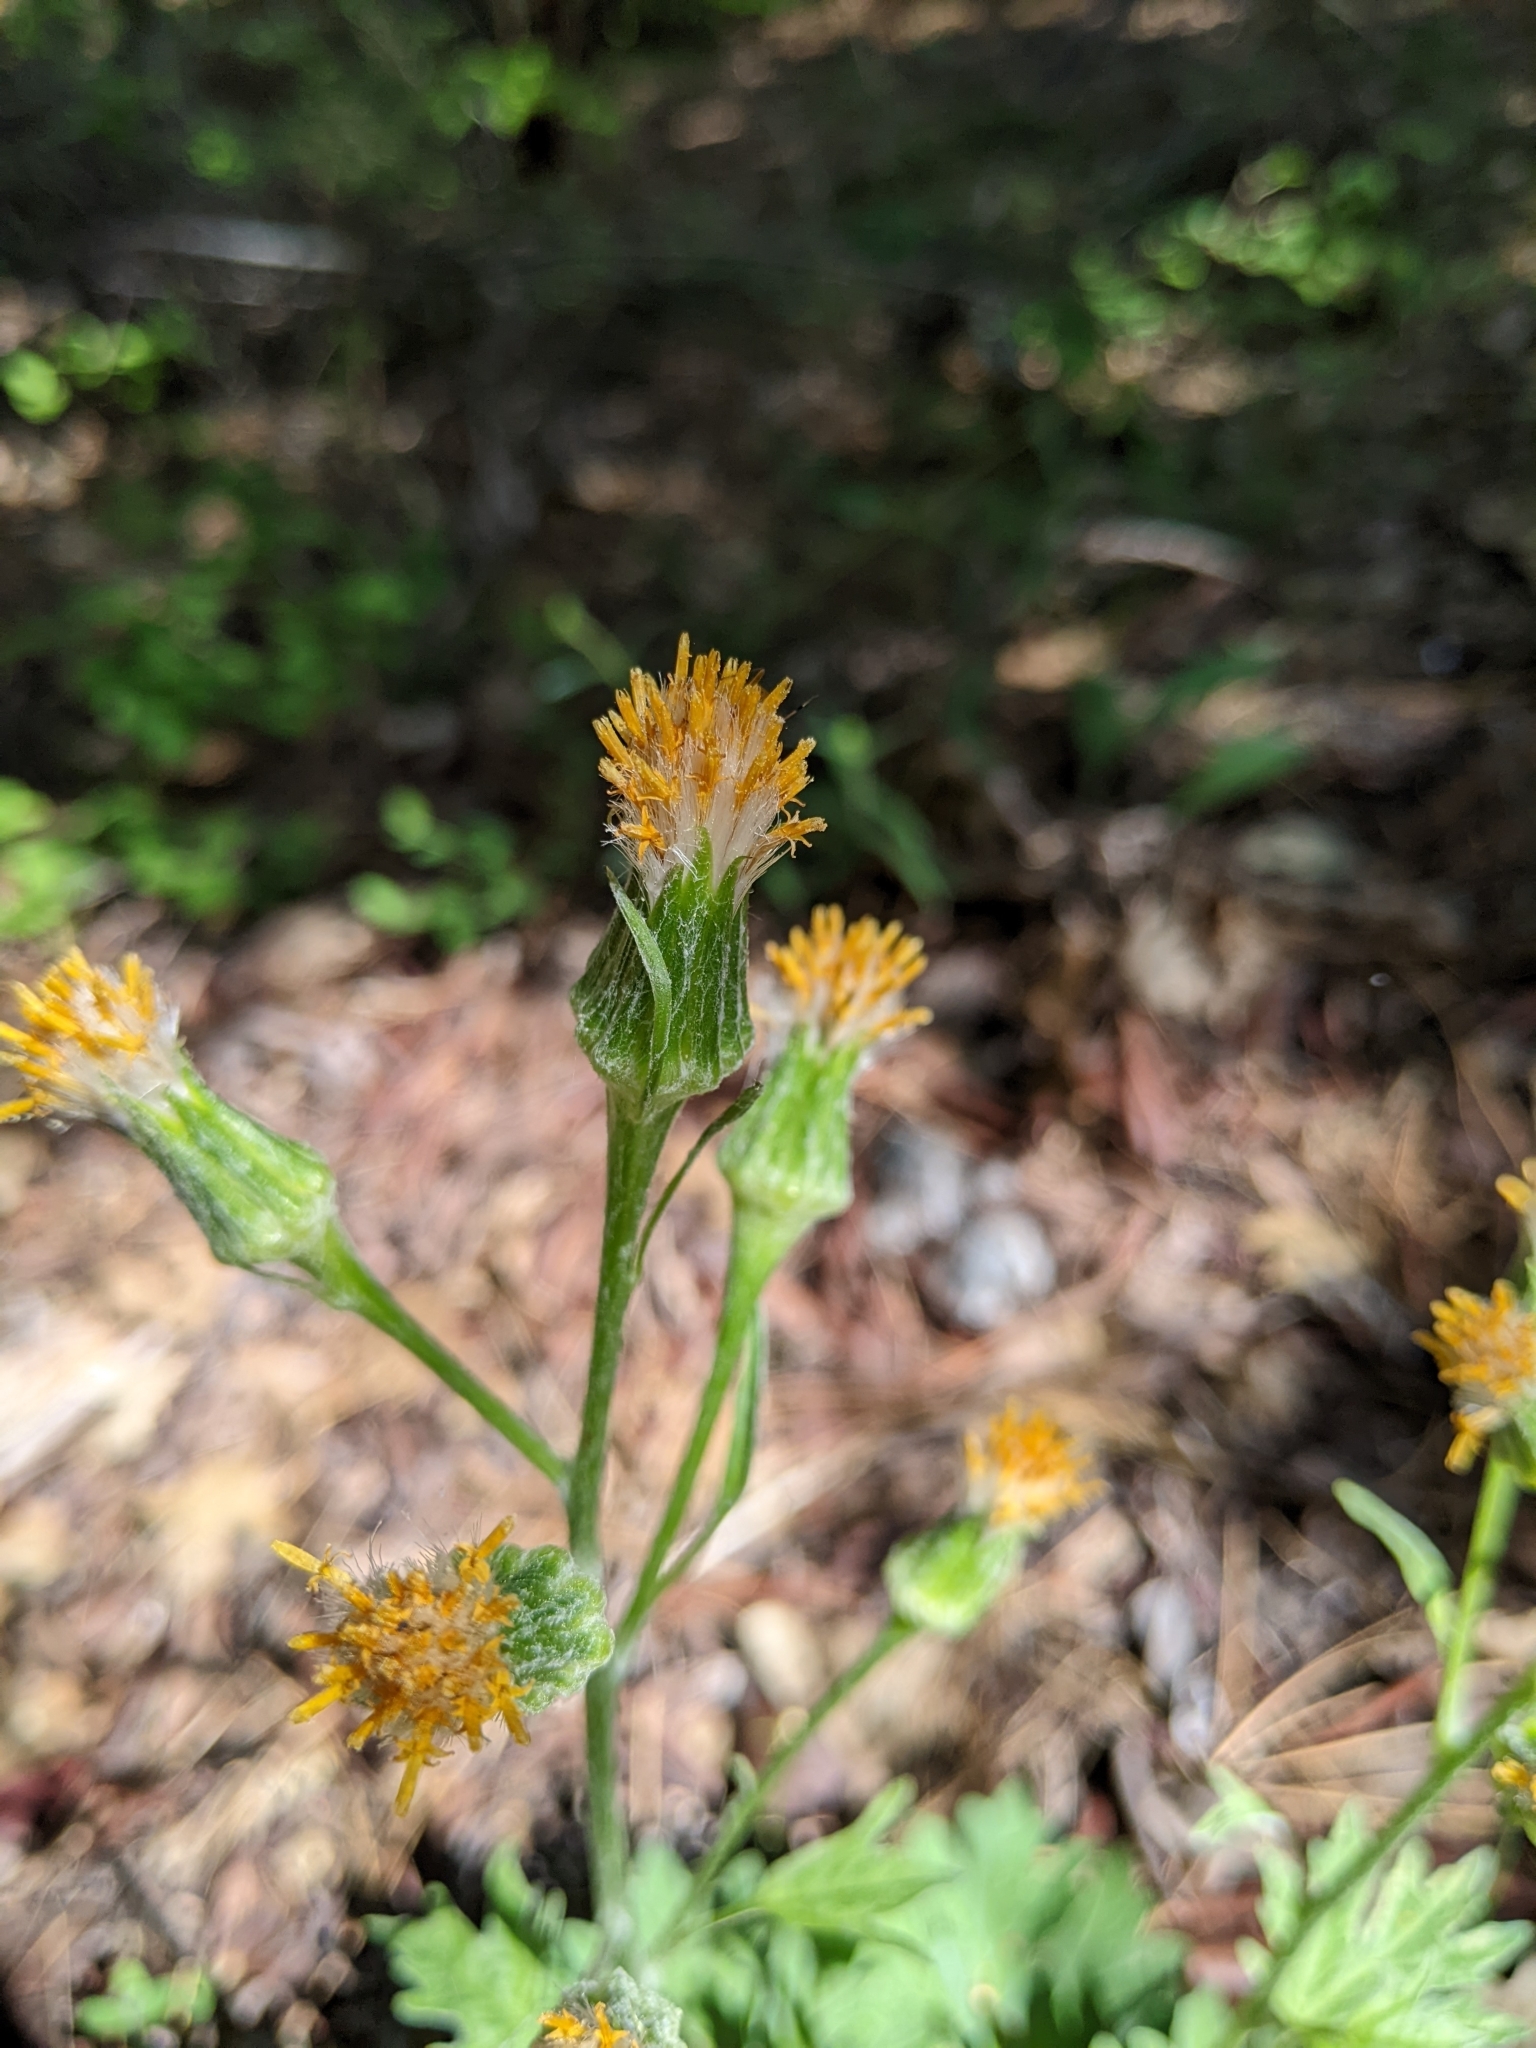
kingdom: Plantae
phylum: Tracheophyta
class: Magnoliopsida
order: Asterales
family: Asteraceae
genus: Cacaliopsis
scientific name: Cacaliopsis nardosmia
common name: Silvercrown
